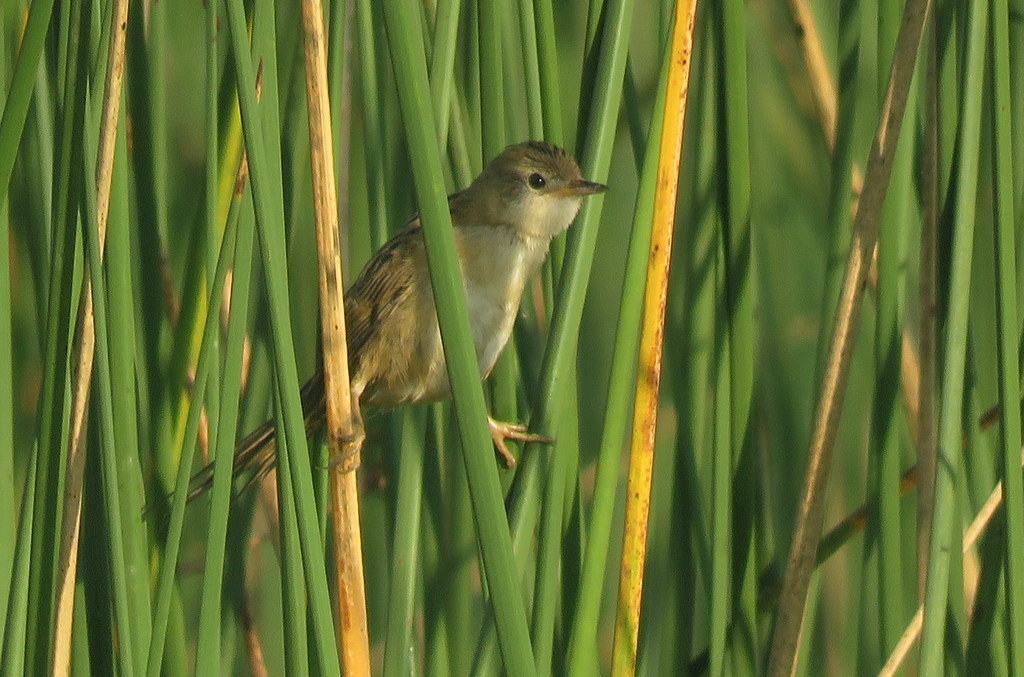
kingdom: Animalia
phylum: Chordata
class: Aves
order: Passeriformes
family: Furnariidae
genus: Spartonoica
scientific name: Spartonoica maluroides
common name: Bay-capped wren-spinetail
